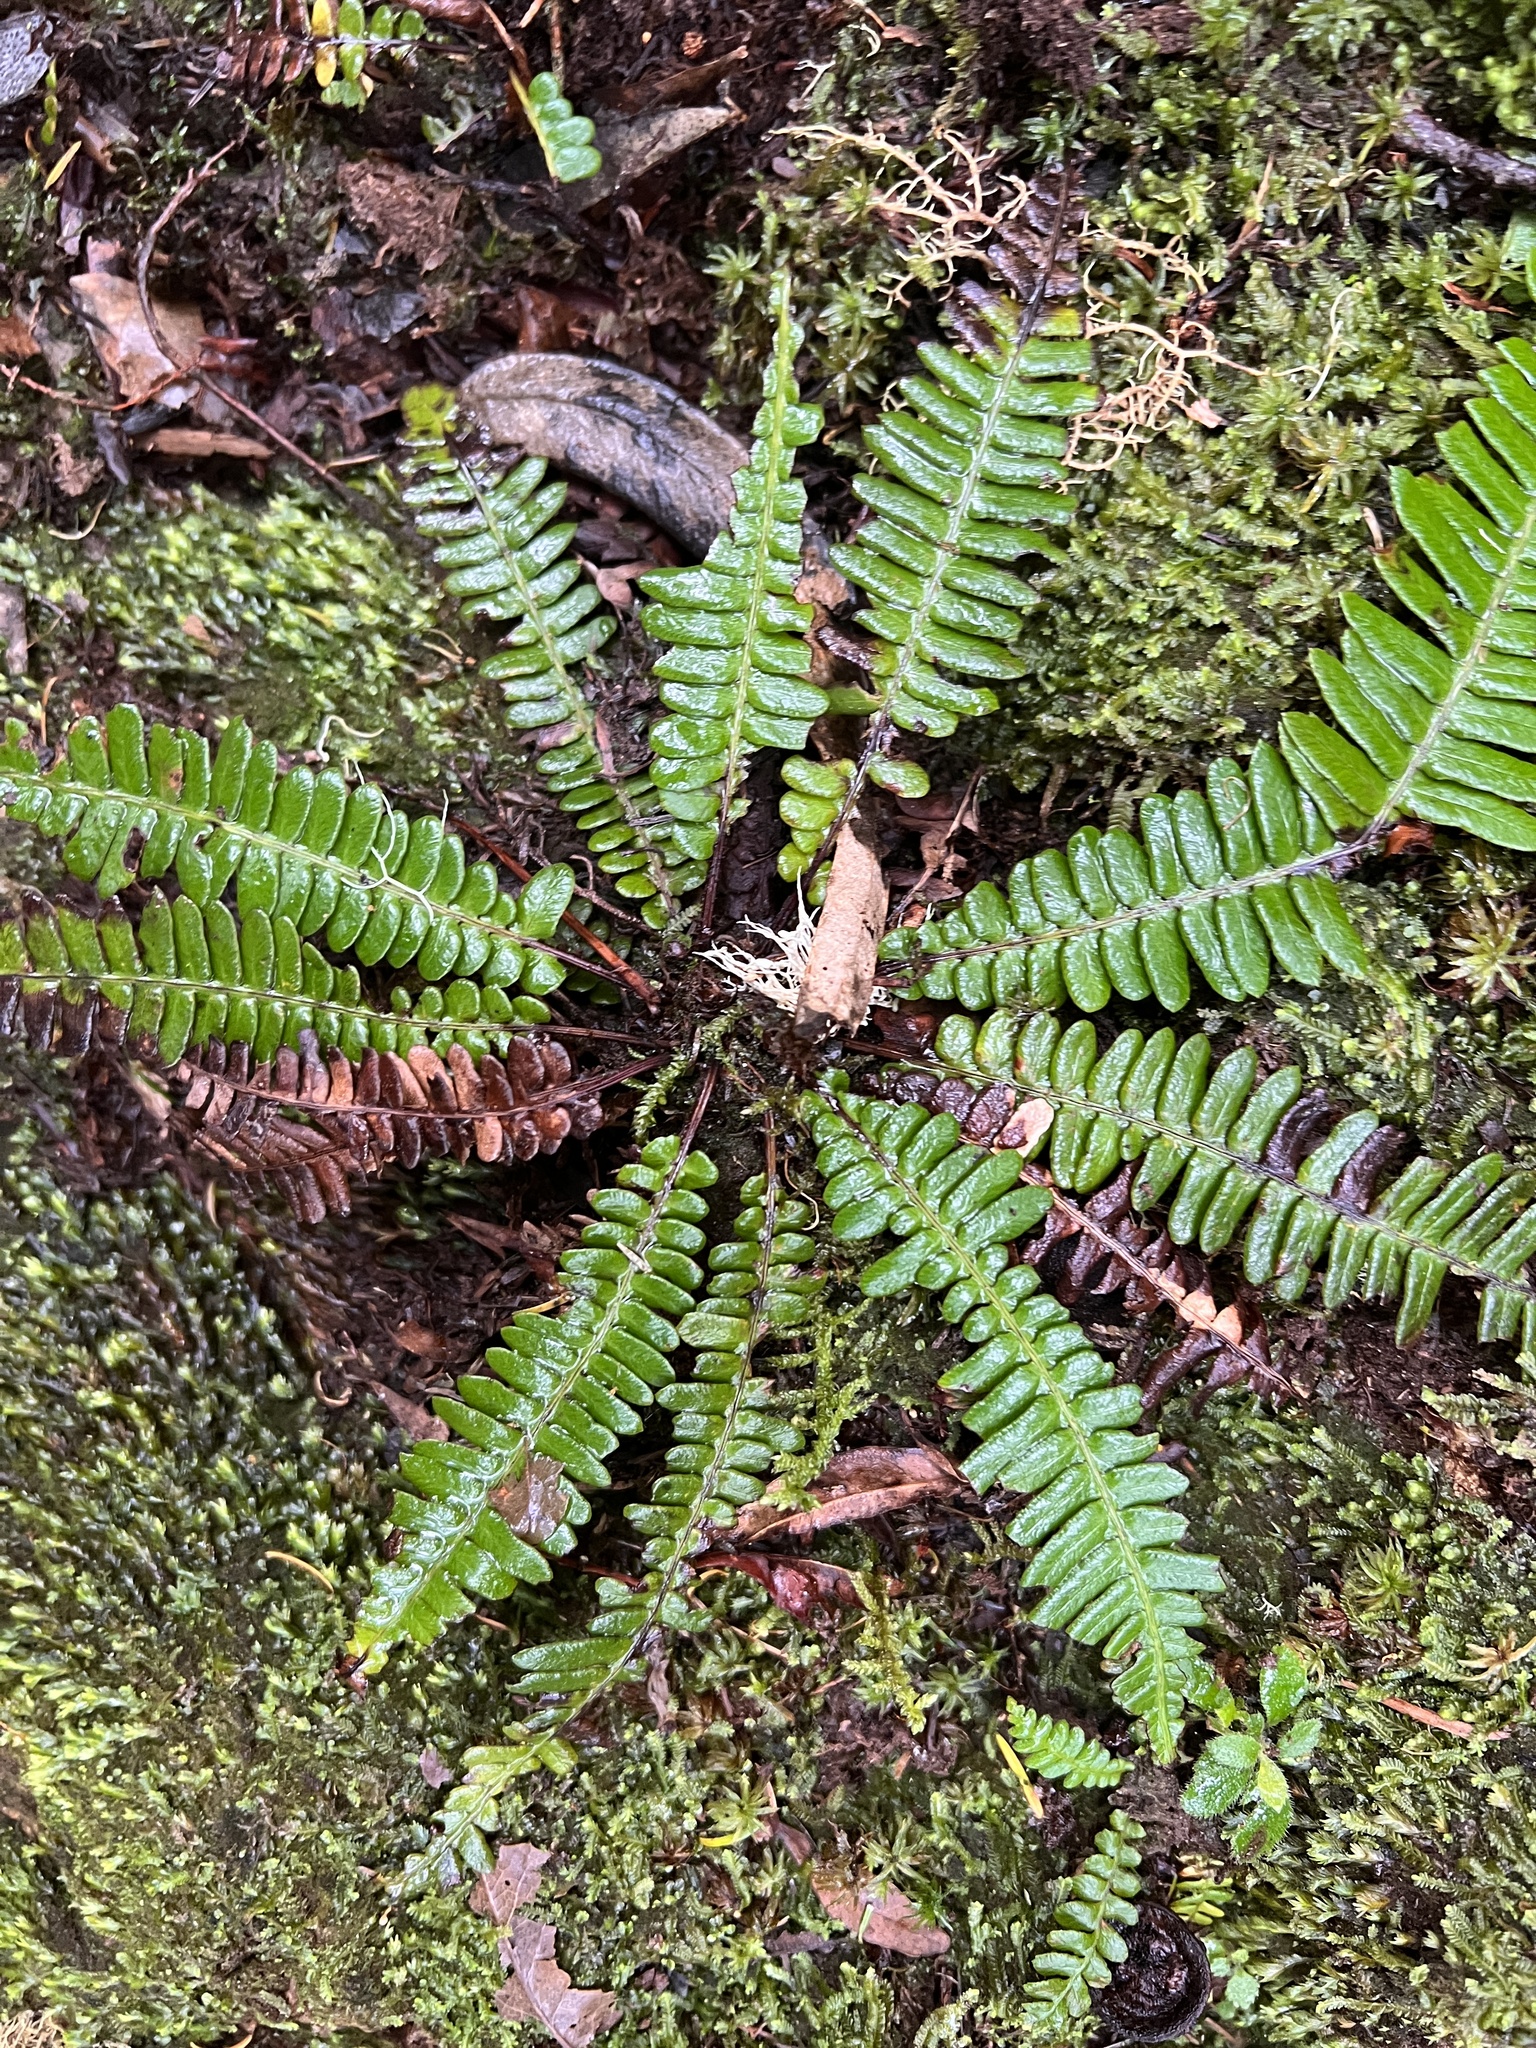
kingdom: Plantae
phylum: Tracheophyta
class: Polypodiopsida
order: Polypodiales
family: Blechnaceae
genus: Struthiopteris
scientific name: Struthiopteris spicant
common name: Deer fern
